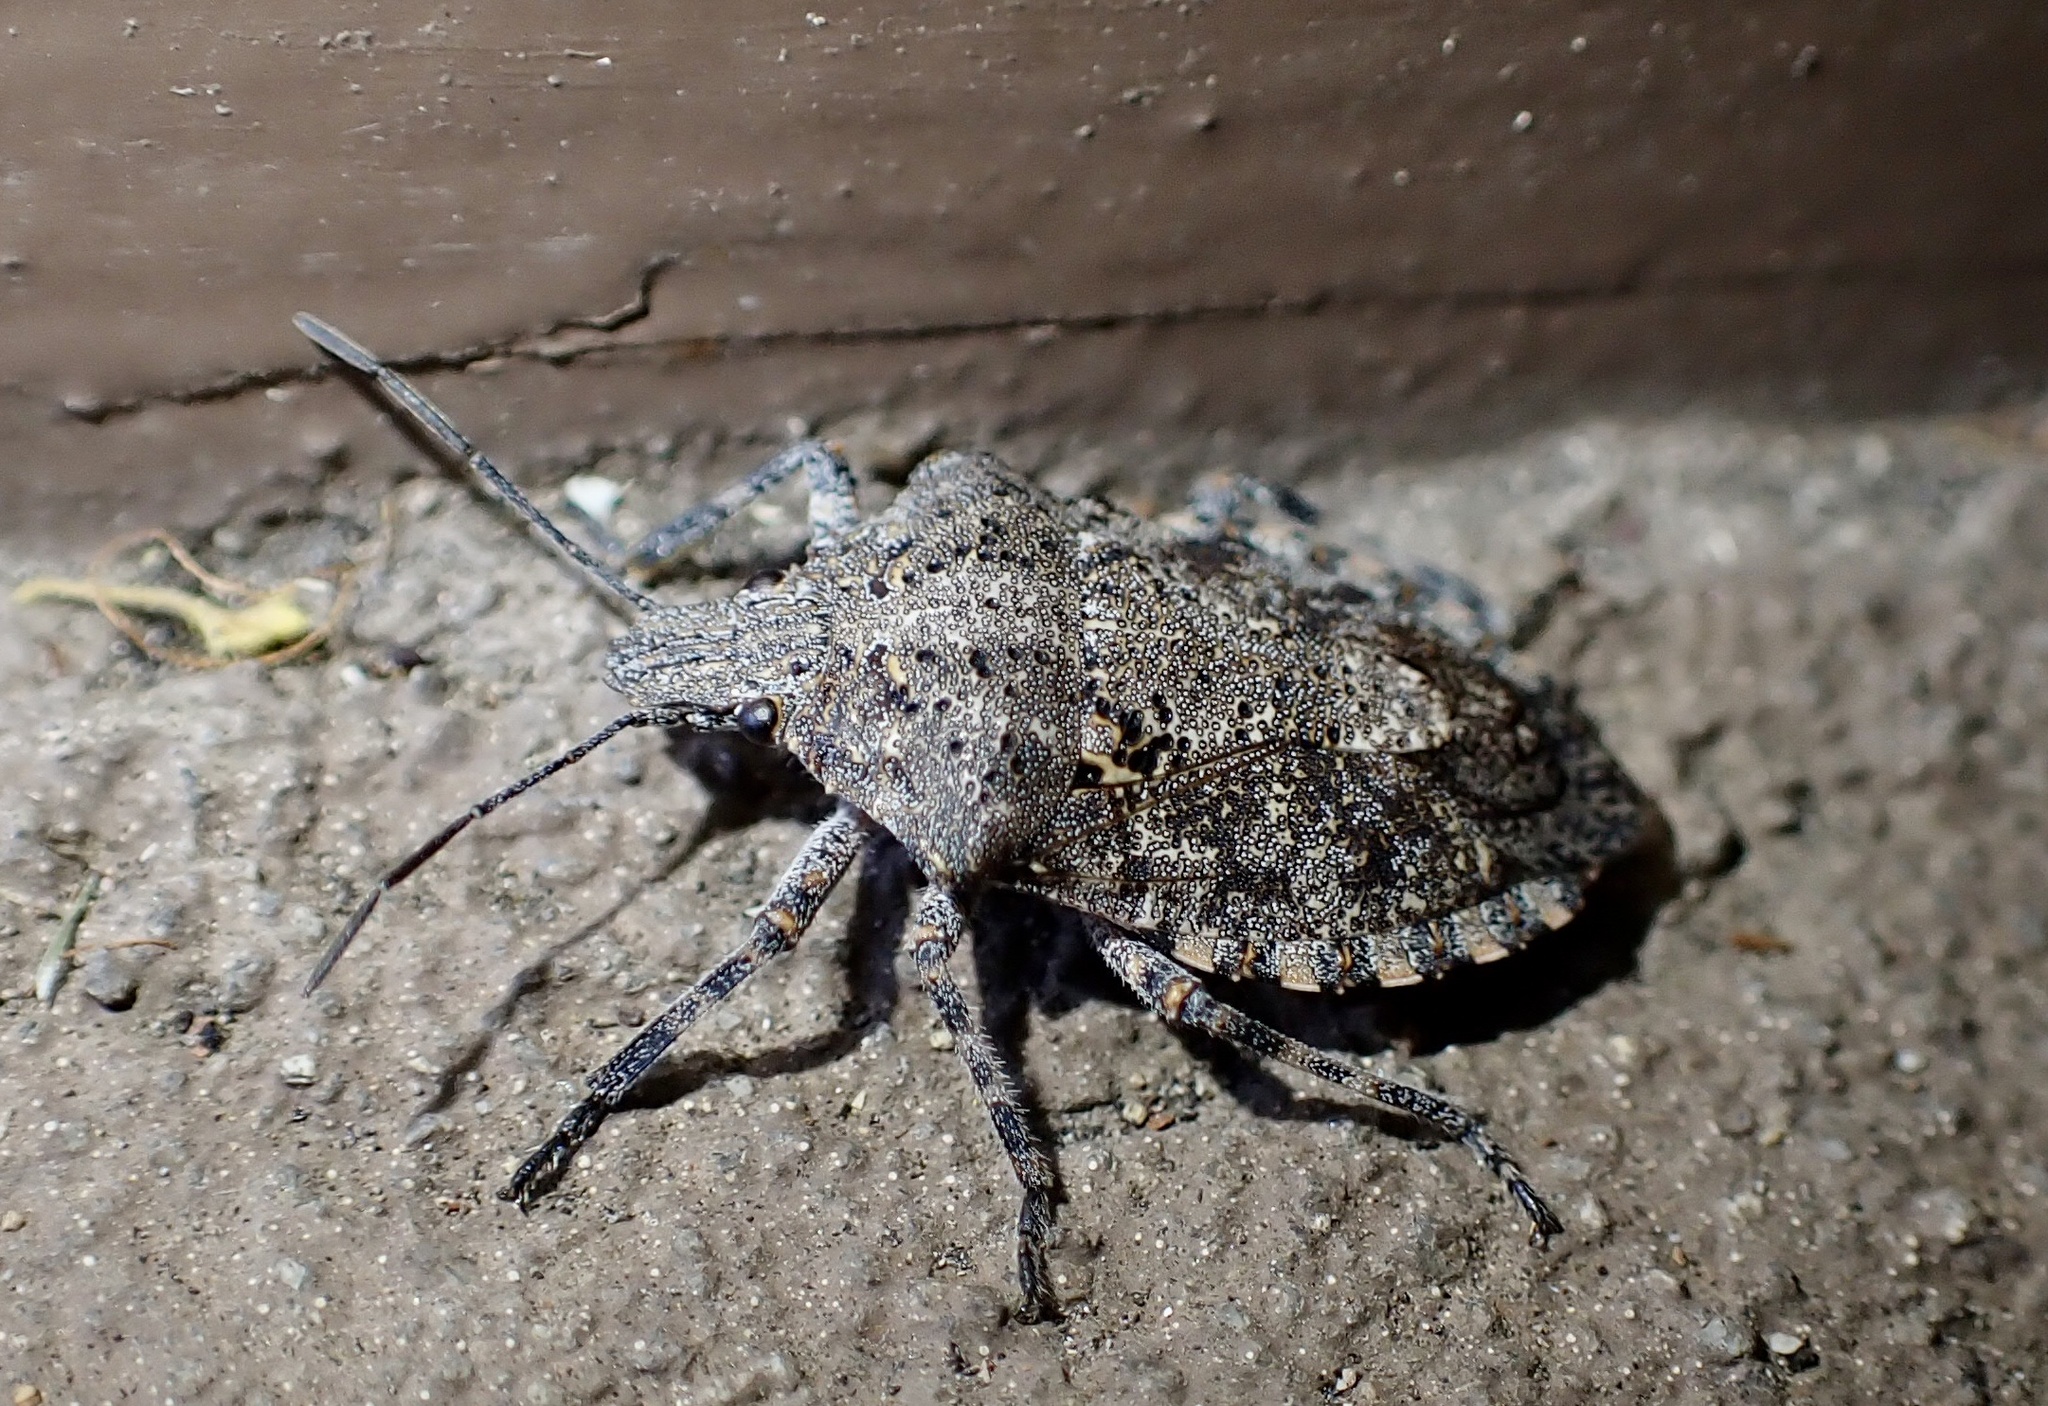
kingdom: Animalia
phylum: Arthropoda
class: Insecta
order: Hemiptera
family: Pentatomidae
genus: Brochymena
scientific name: Brochymena quadripustulata
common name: Four-humped stink bug
